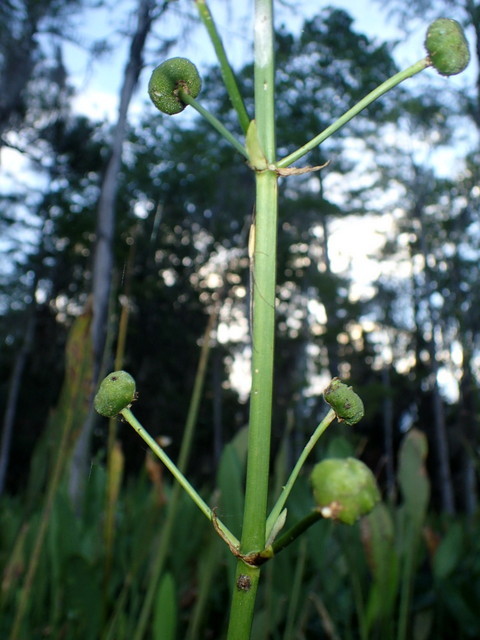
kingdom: Plantae
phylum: Tracheophyta
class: Liliopsida
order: Alismatales
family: Alismataceae
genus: Sagittaria
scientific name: Sagittaria lancifolia
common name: Lance-leaf arrowhead
